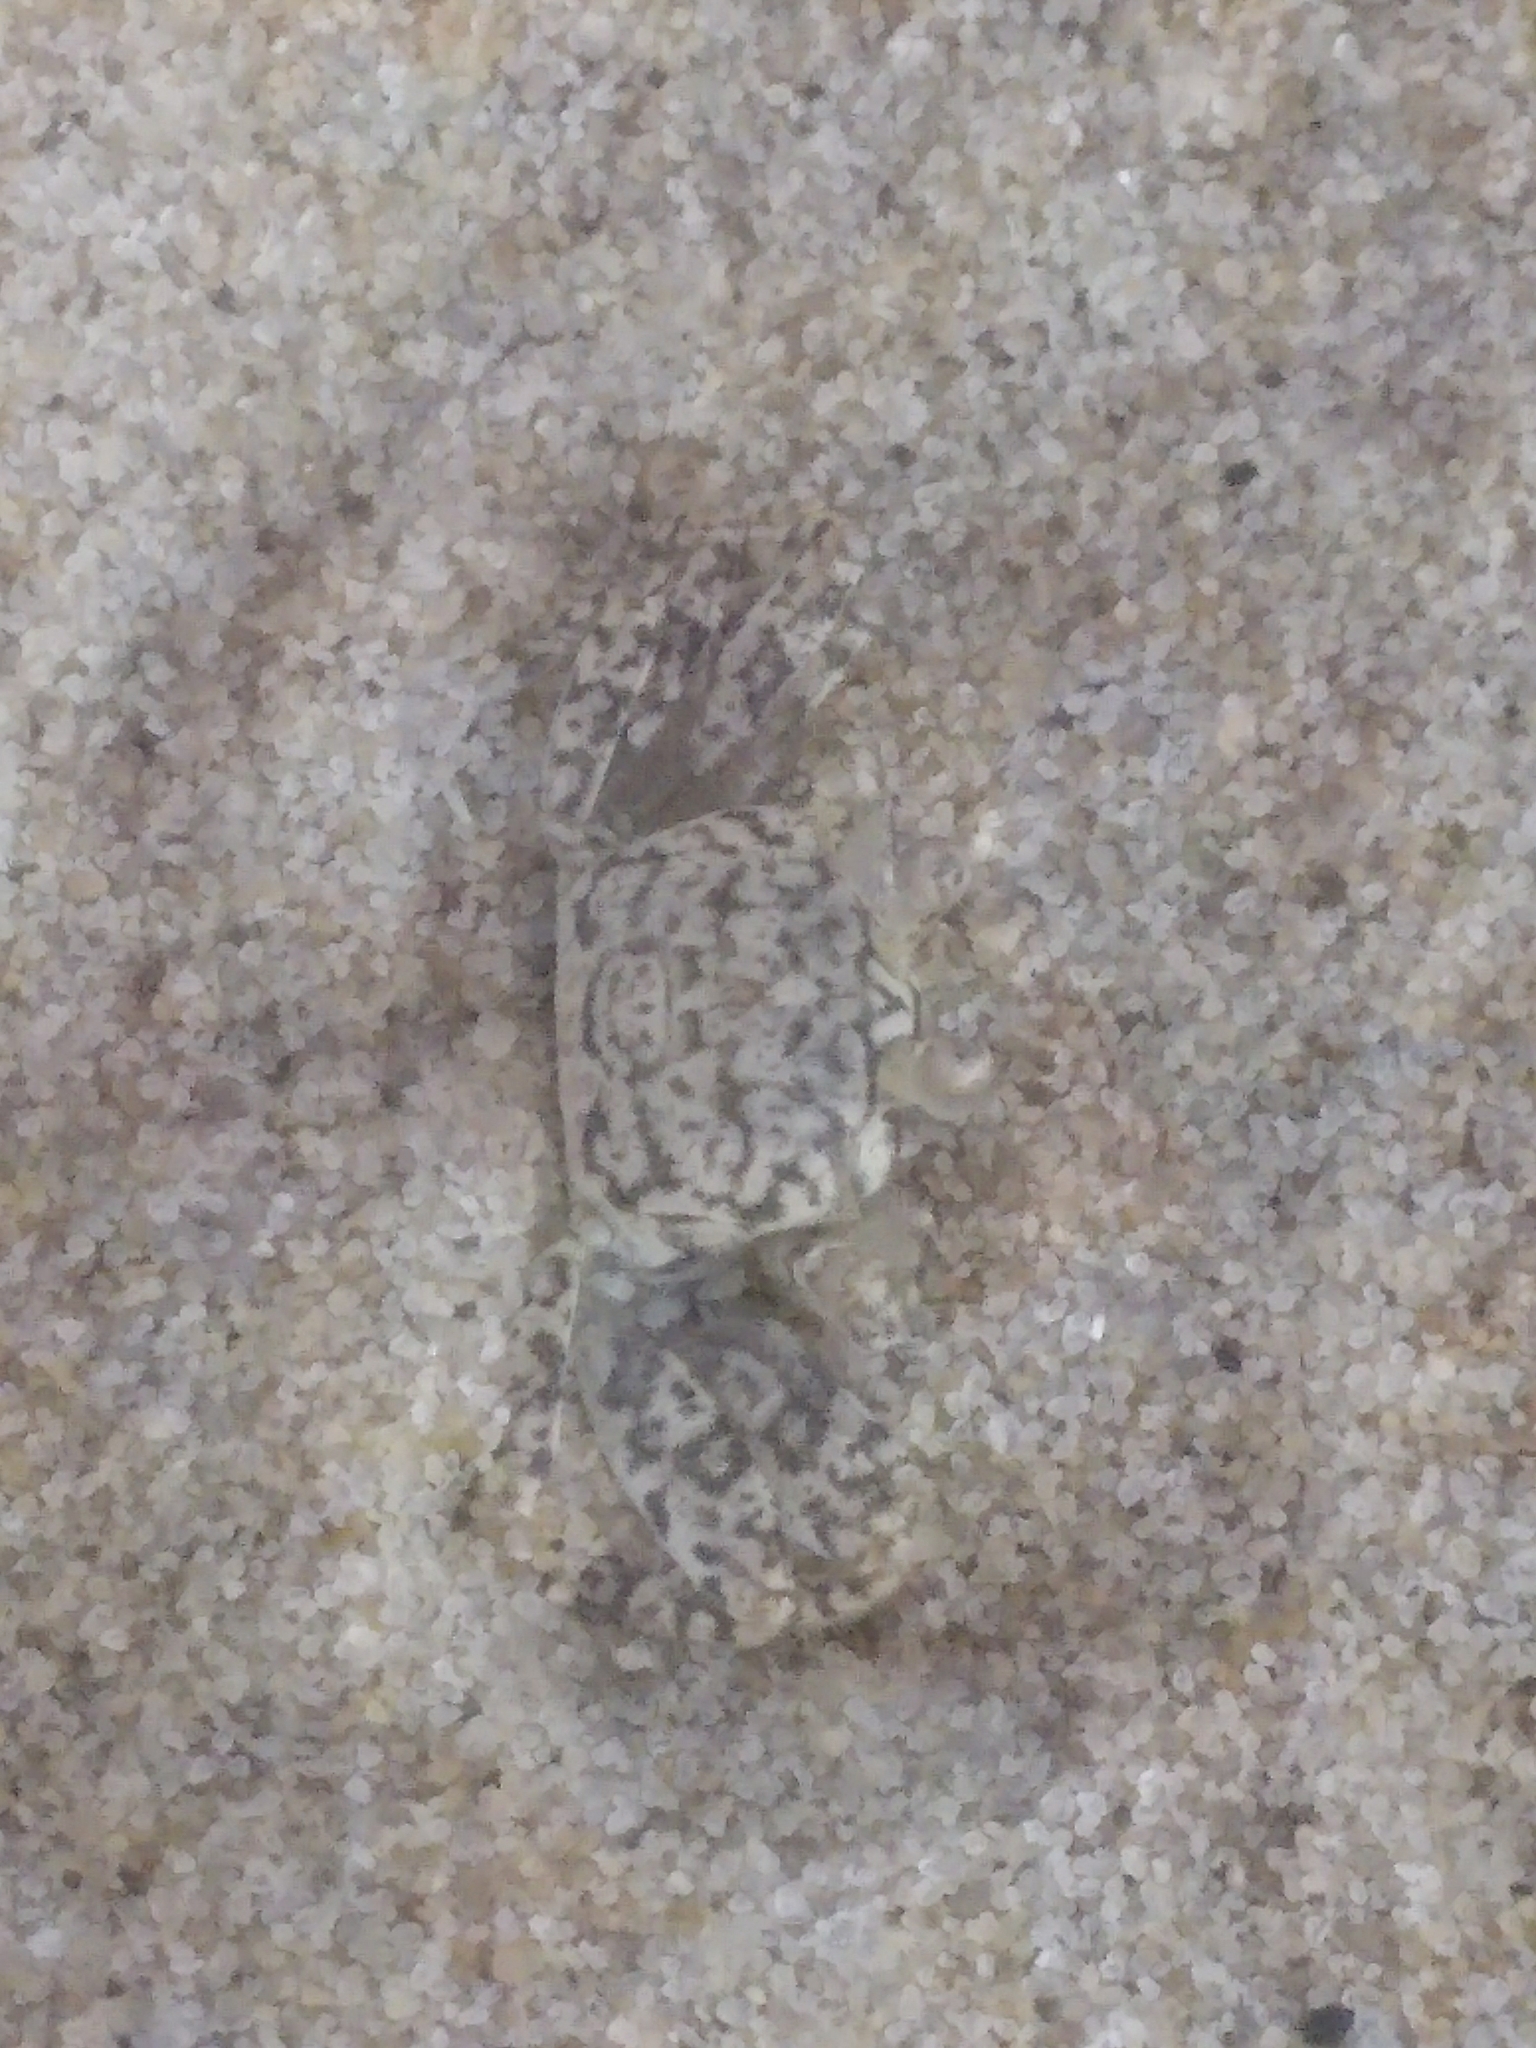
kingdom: Animalia
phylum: Arthropoda
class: Malacostraca
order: Decapoda
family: Ocypodidae
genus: Ocypode
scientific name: Ocypode quadrata
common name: Ghost crab
